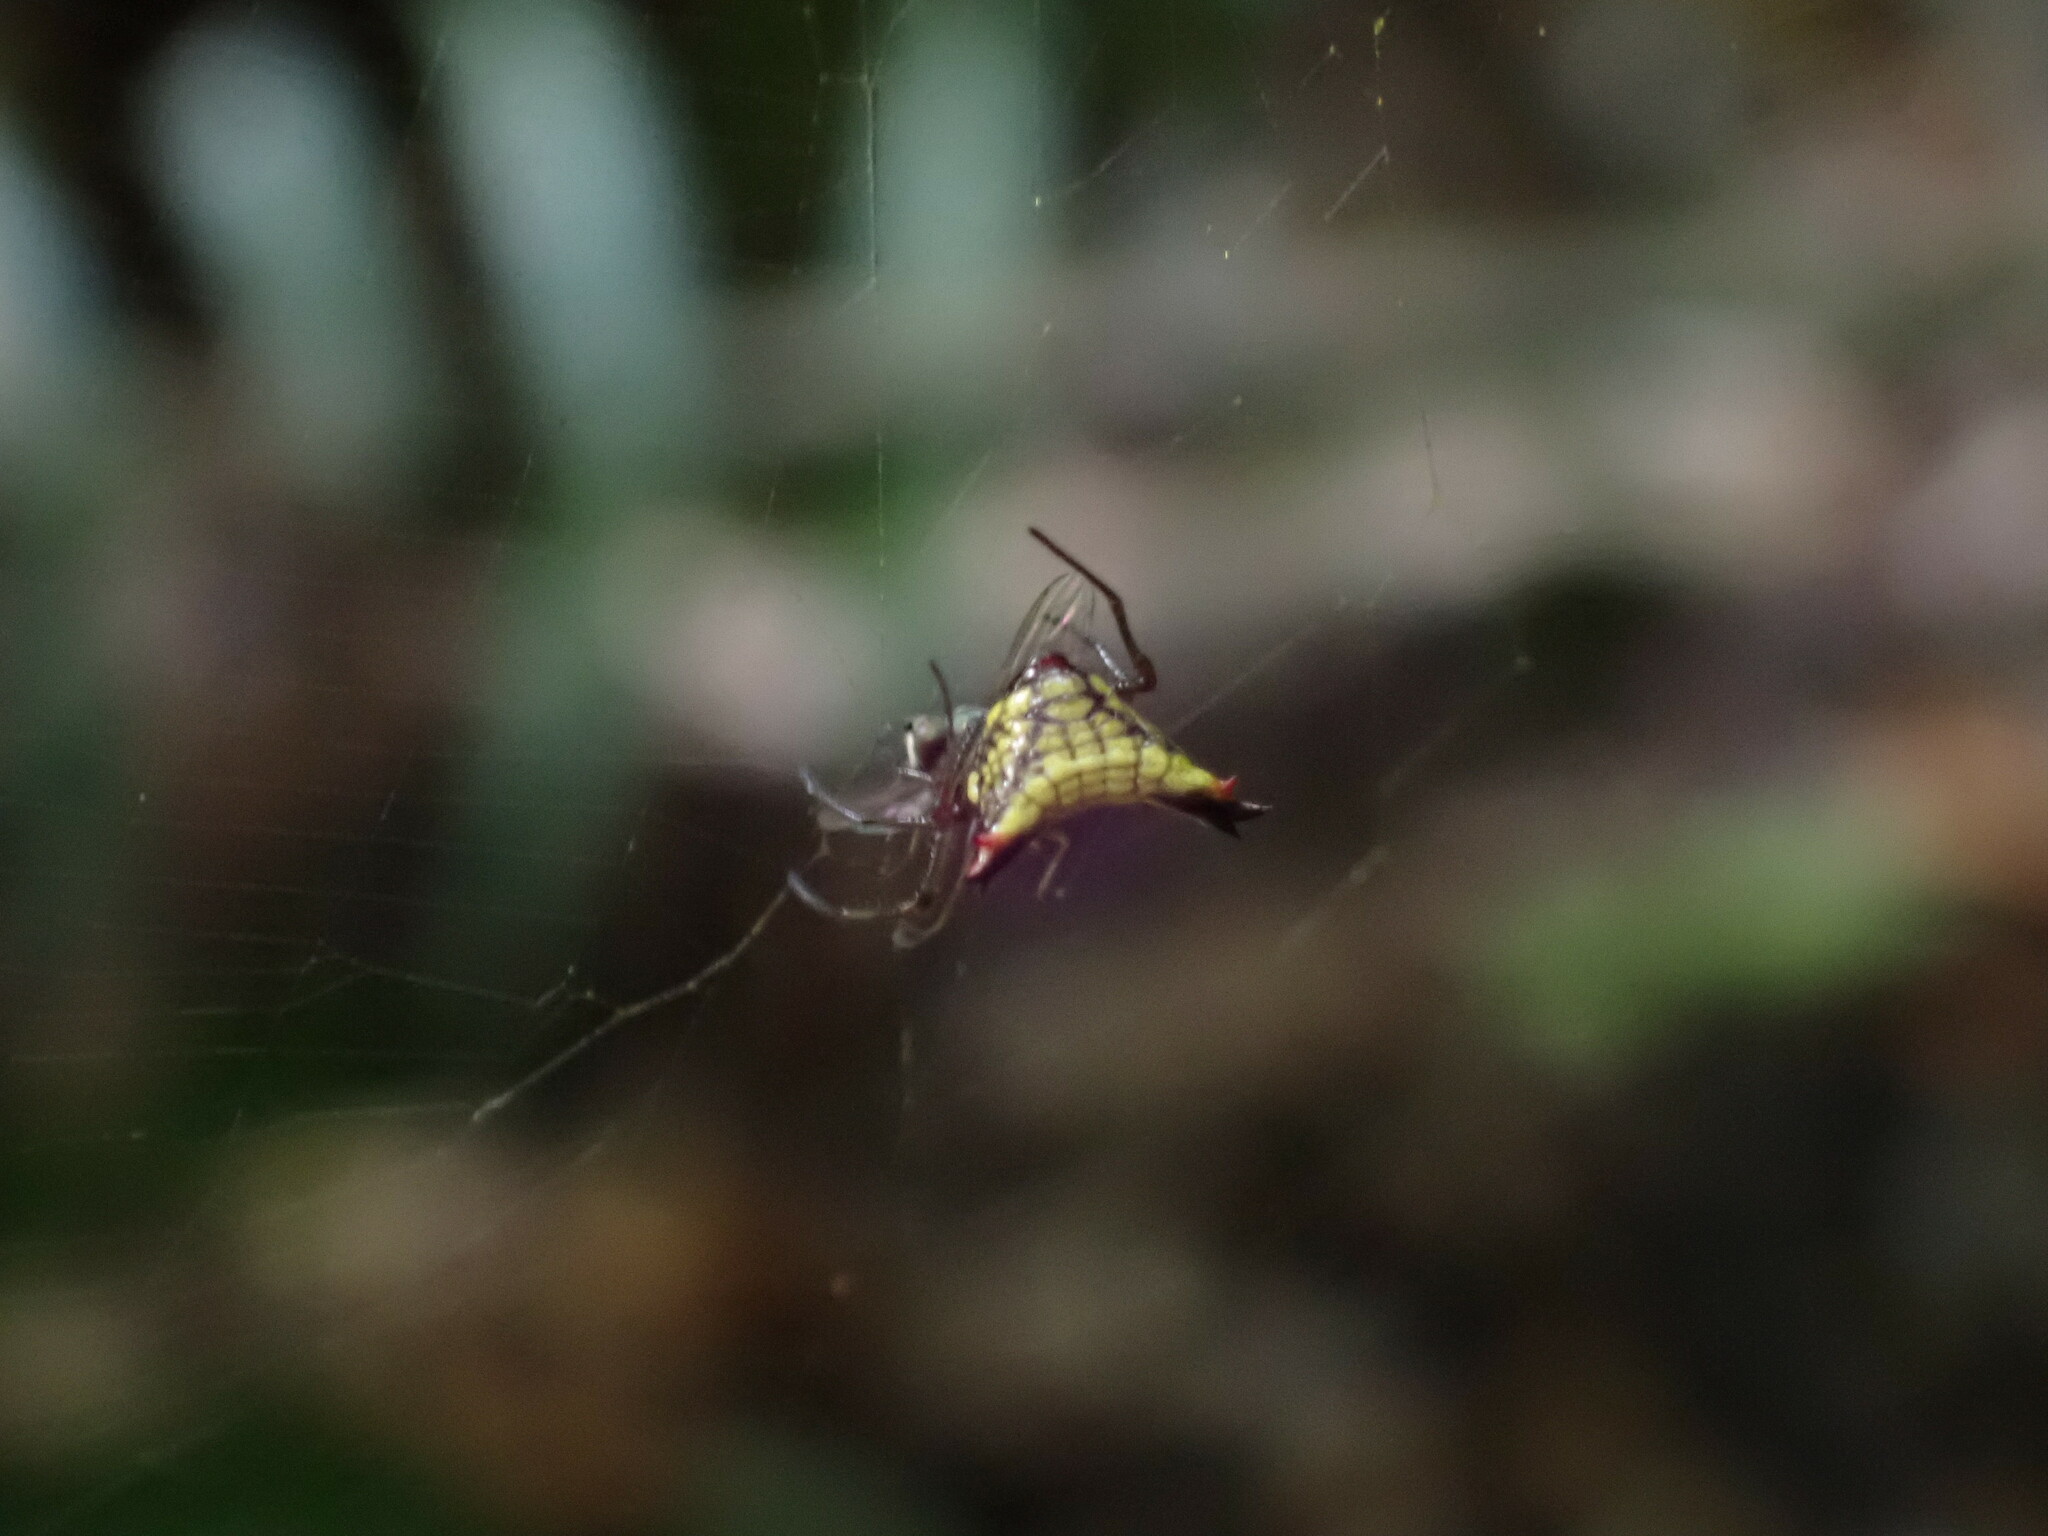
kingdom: Animalia
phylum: Arthropoda
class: Arachnida
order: Araneae
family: Araneidae
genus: Micrathena
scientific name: Micrathena duodecimspinosa
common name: Orb weavers
